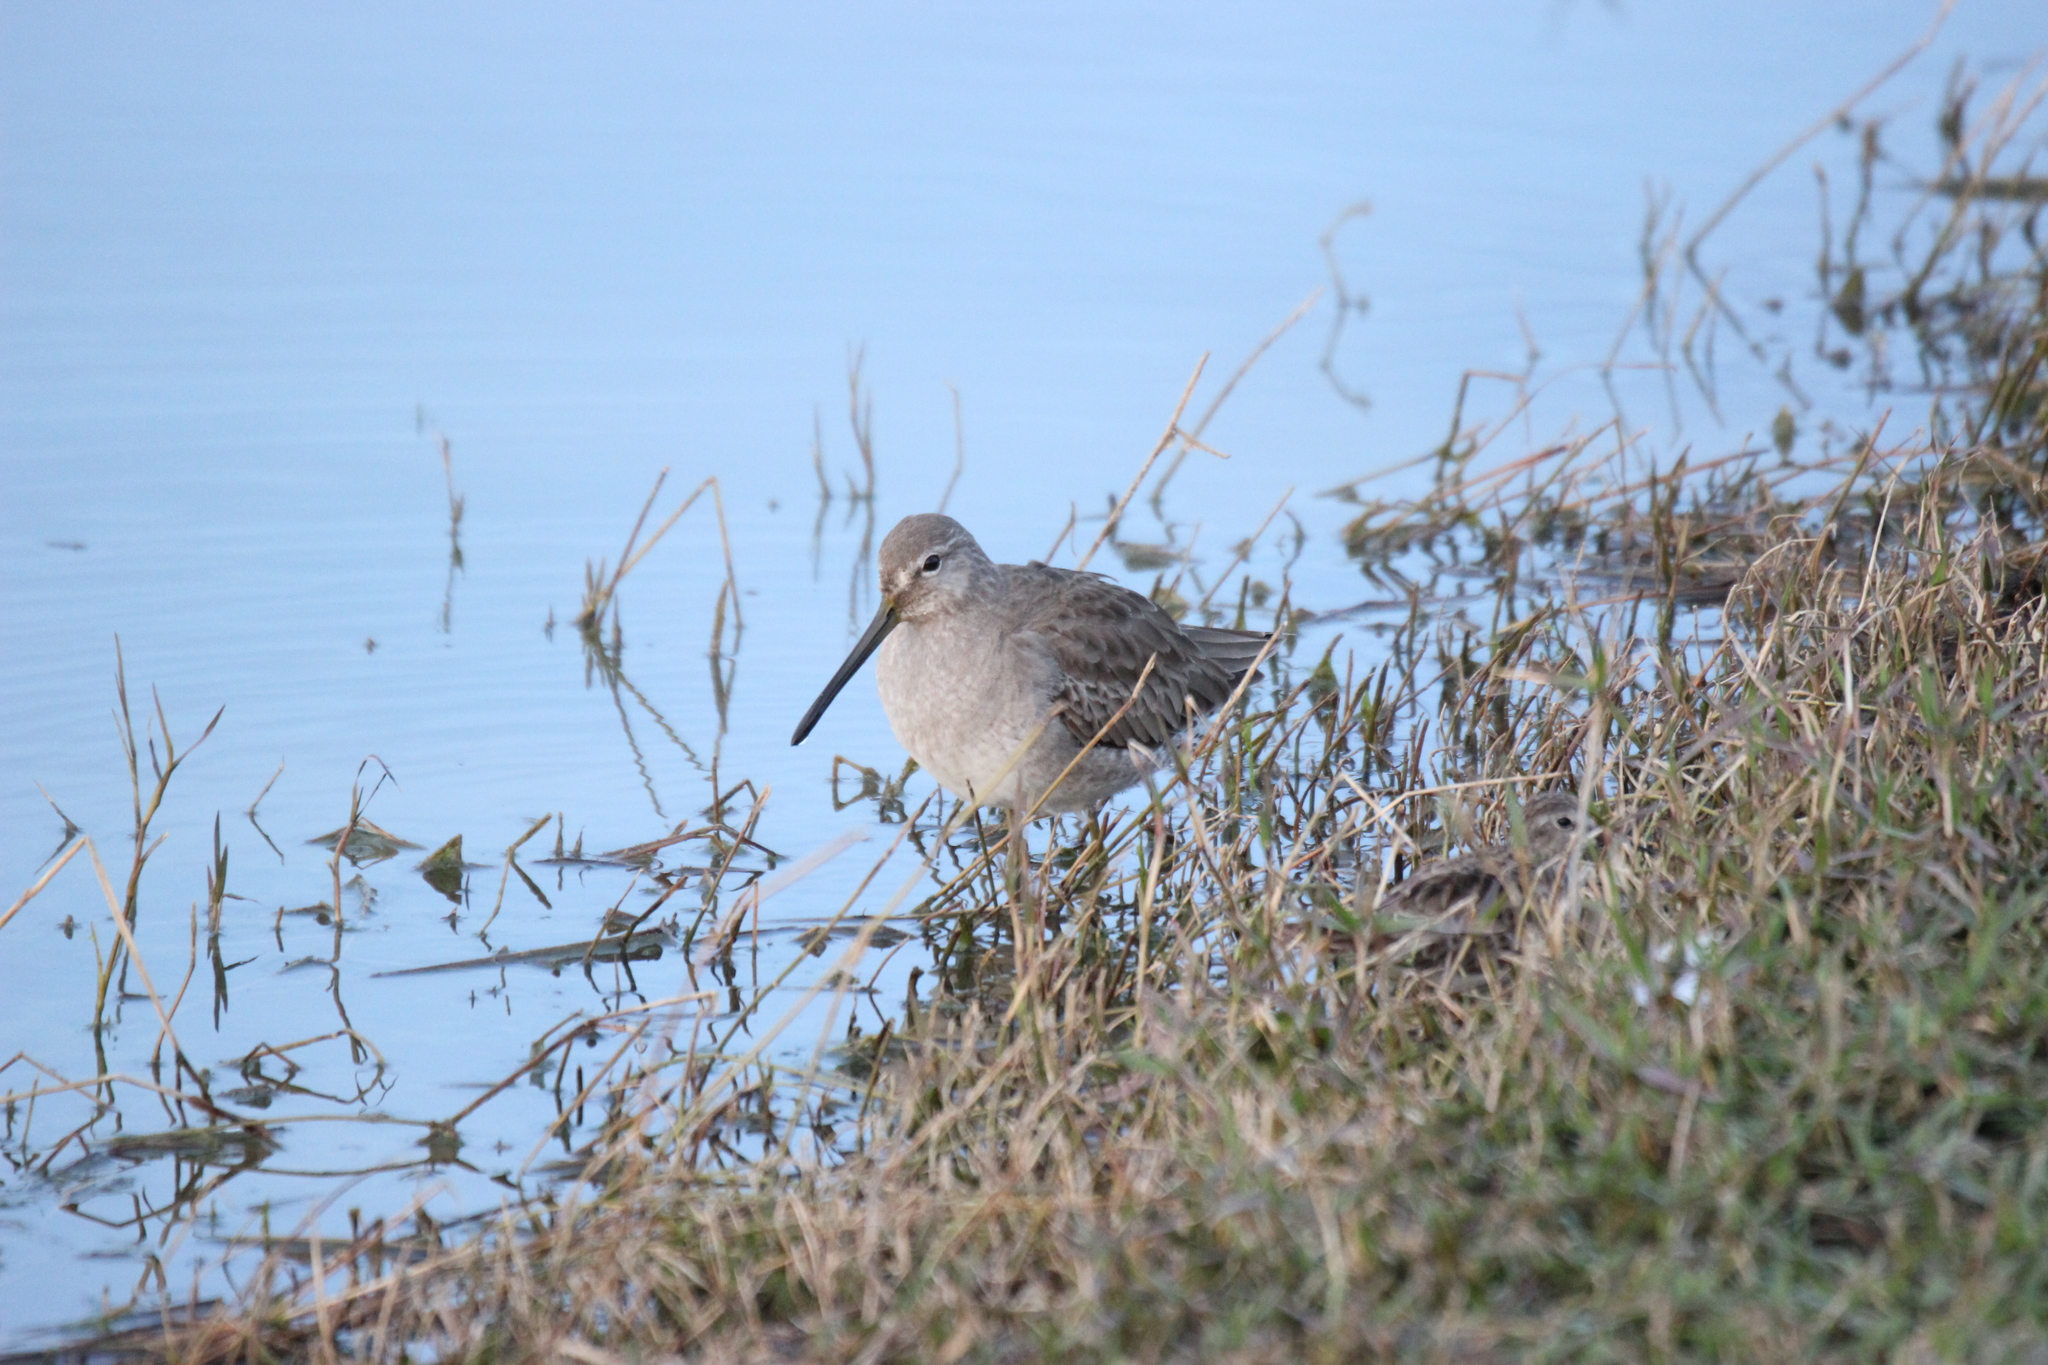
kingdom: Animalia
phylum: Chordata
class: Aves
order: Charadriiformes
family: Scolopacidae
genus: Limnodromus
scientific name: Limnodromus scolopaceus
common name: Long-billed dowitcher
